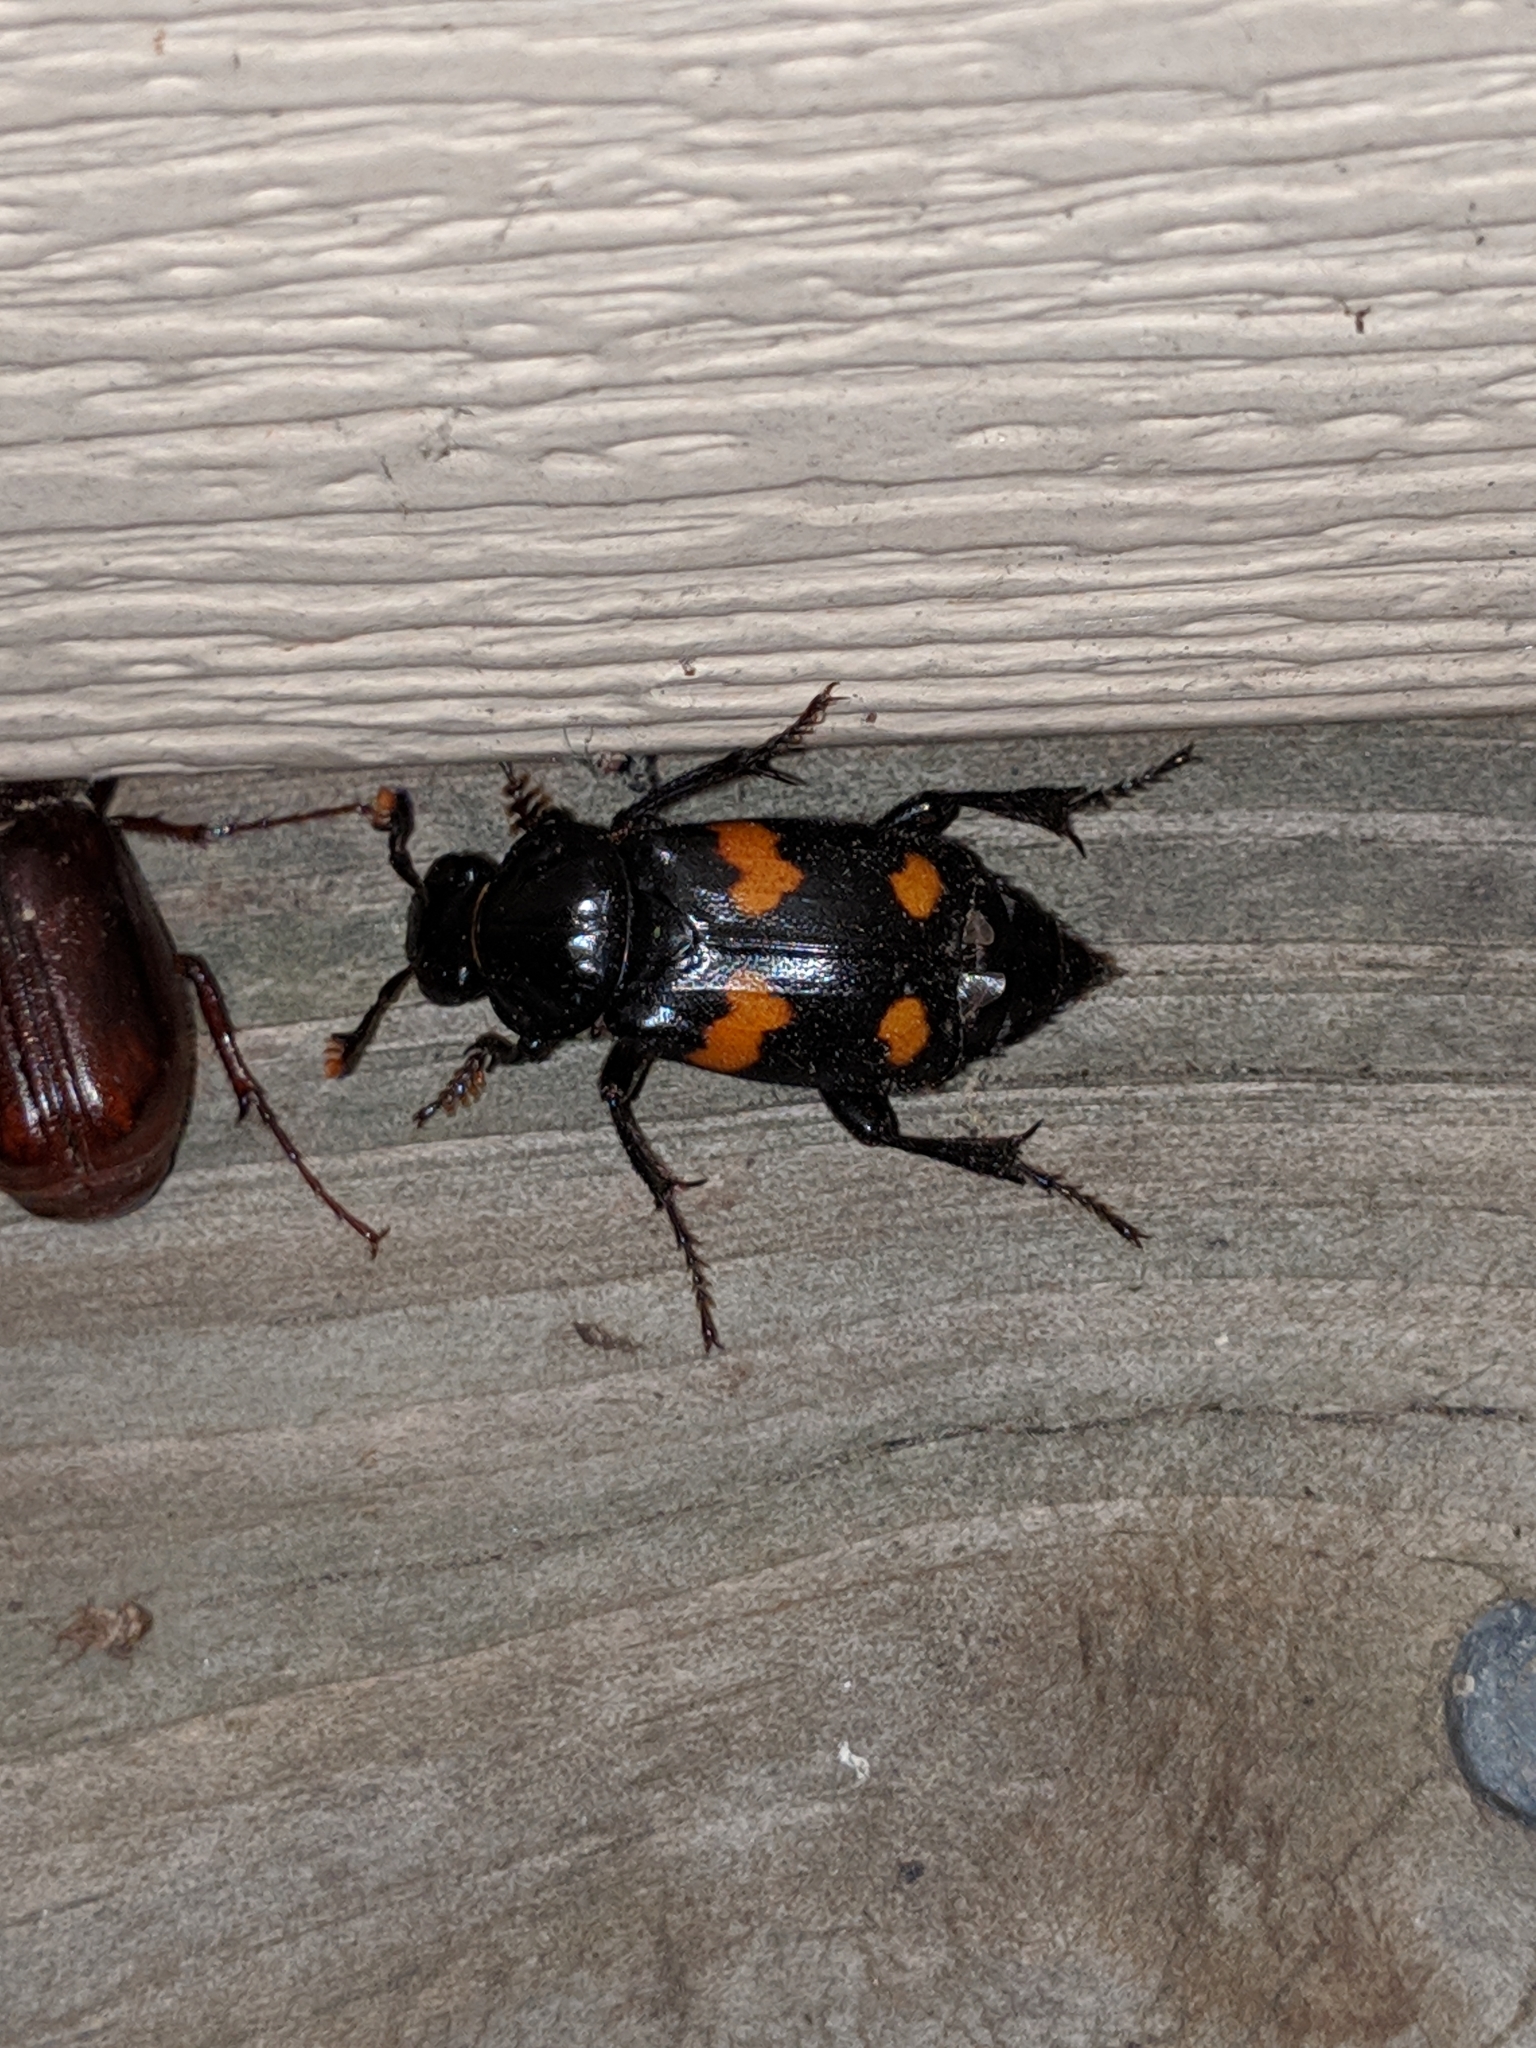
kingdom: Animalia
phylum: Arthropoda
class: Insecta
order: Coleoptera
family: Staphylinidae
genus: Nicrophorus
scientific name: Nicrophorus orbicollis
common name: Roundneck sexton beetle
